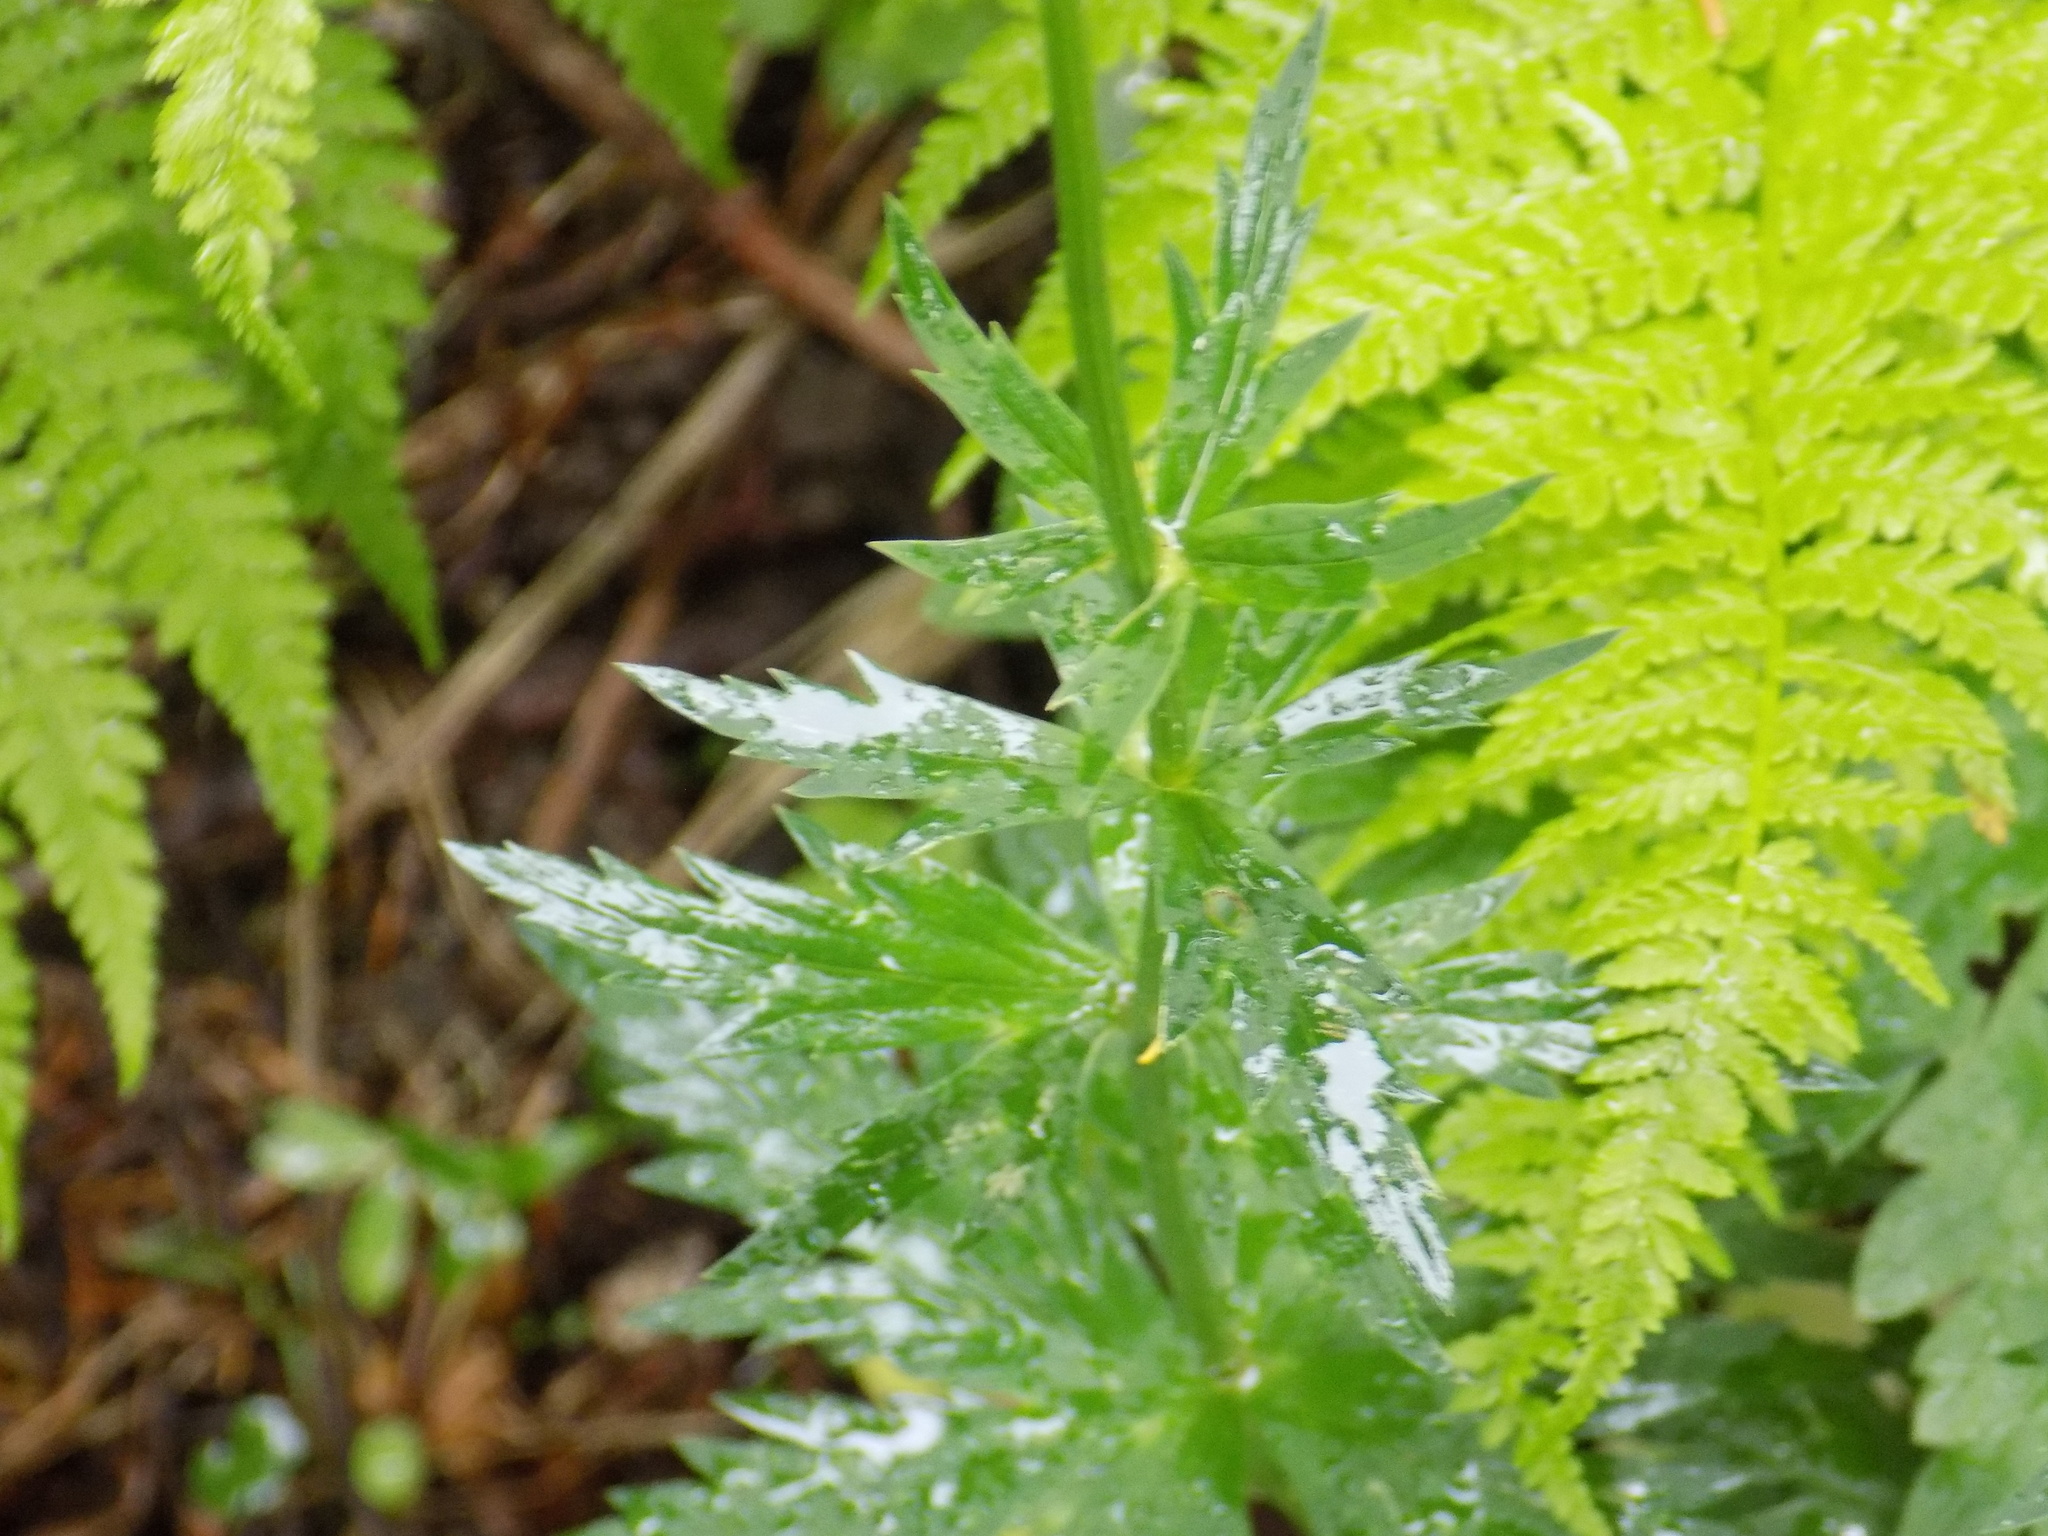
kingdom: Plantae
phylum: Tracheophyta
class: Magnoliopsida
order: Ranunculales
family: Ranunculaceae
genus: Trollius
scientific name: Trollius asiaticus
